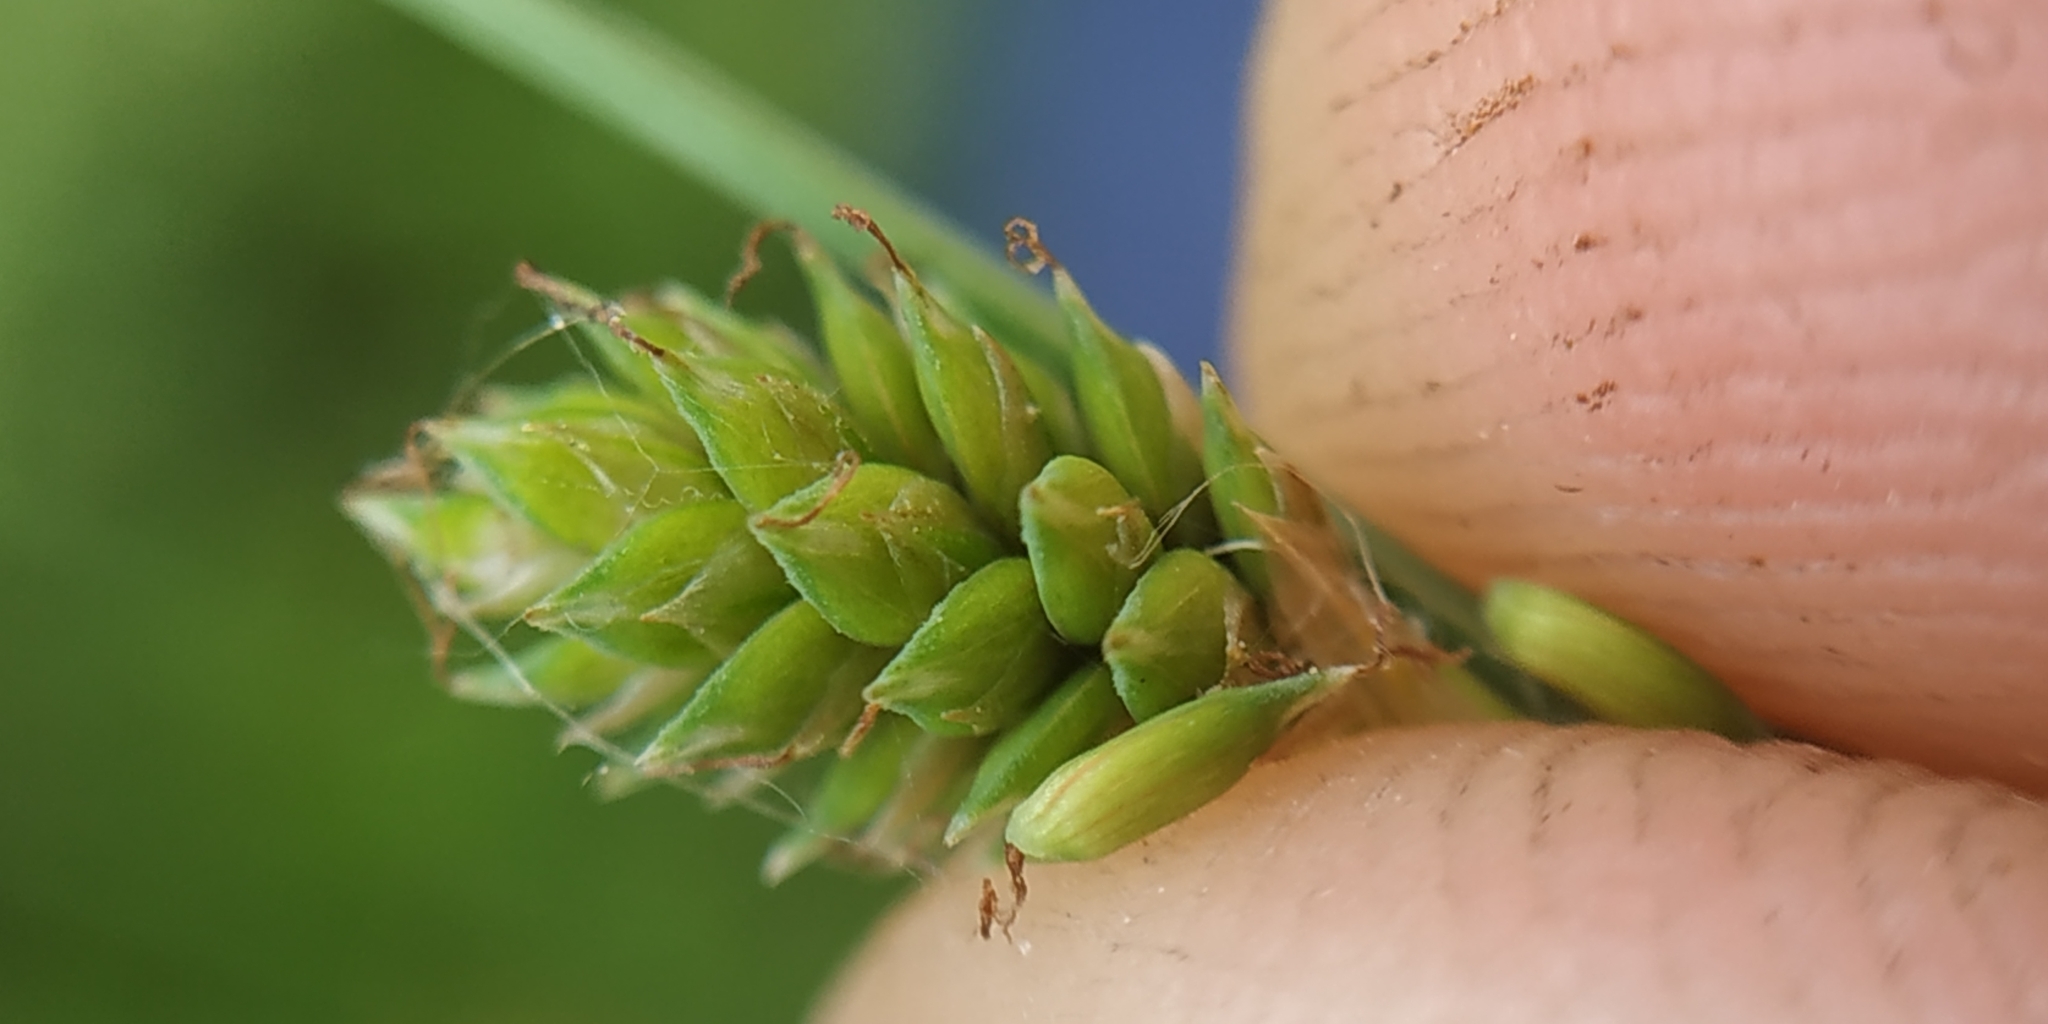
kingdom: Plantae
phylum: Tracheophyta
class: Liliopsida
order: Poales
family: Cyperaceae
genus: Carex
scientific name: Carex canescens
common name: White sedge
